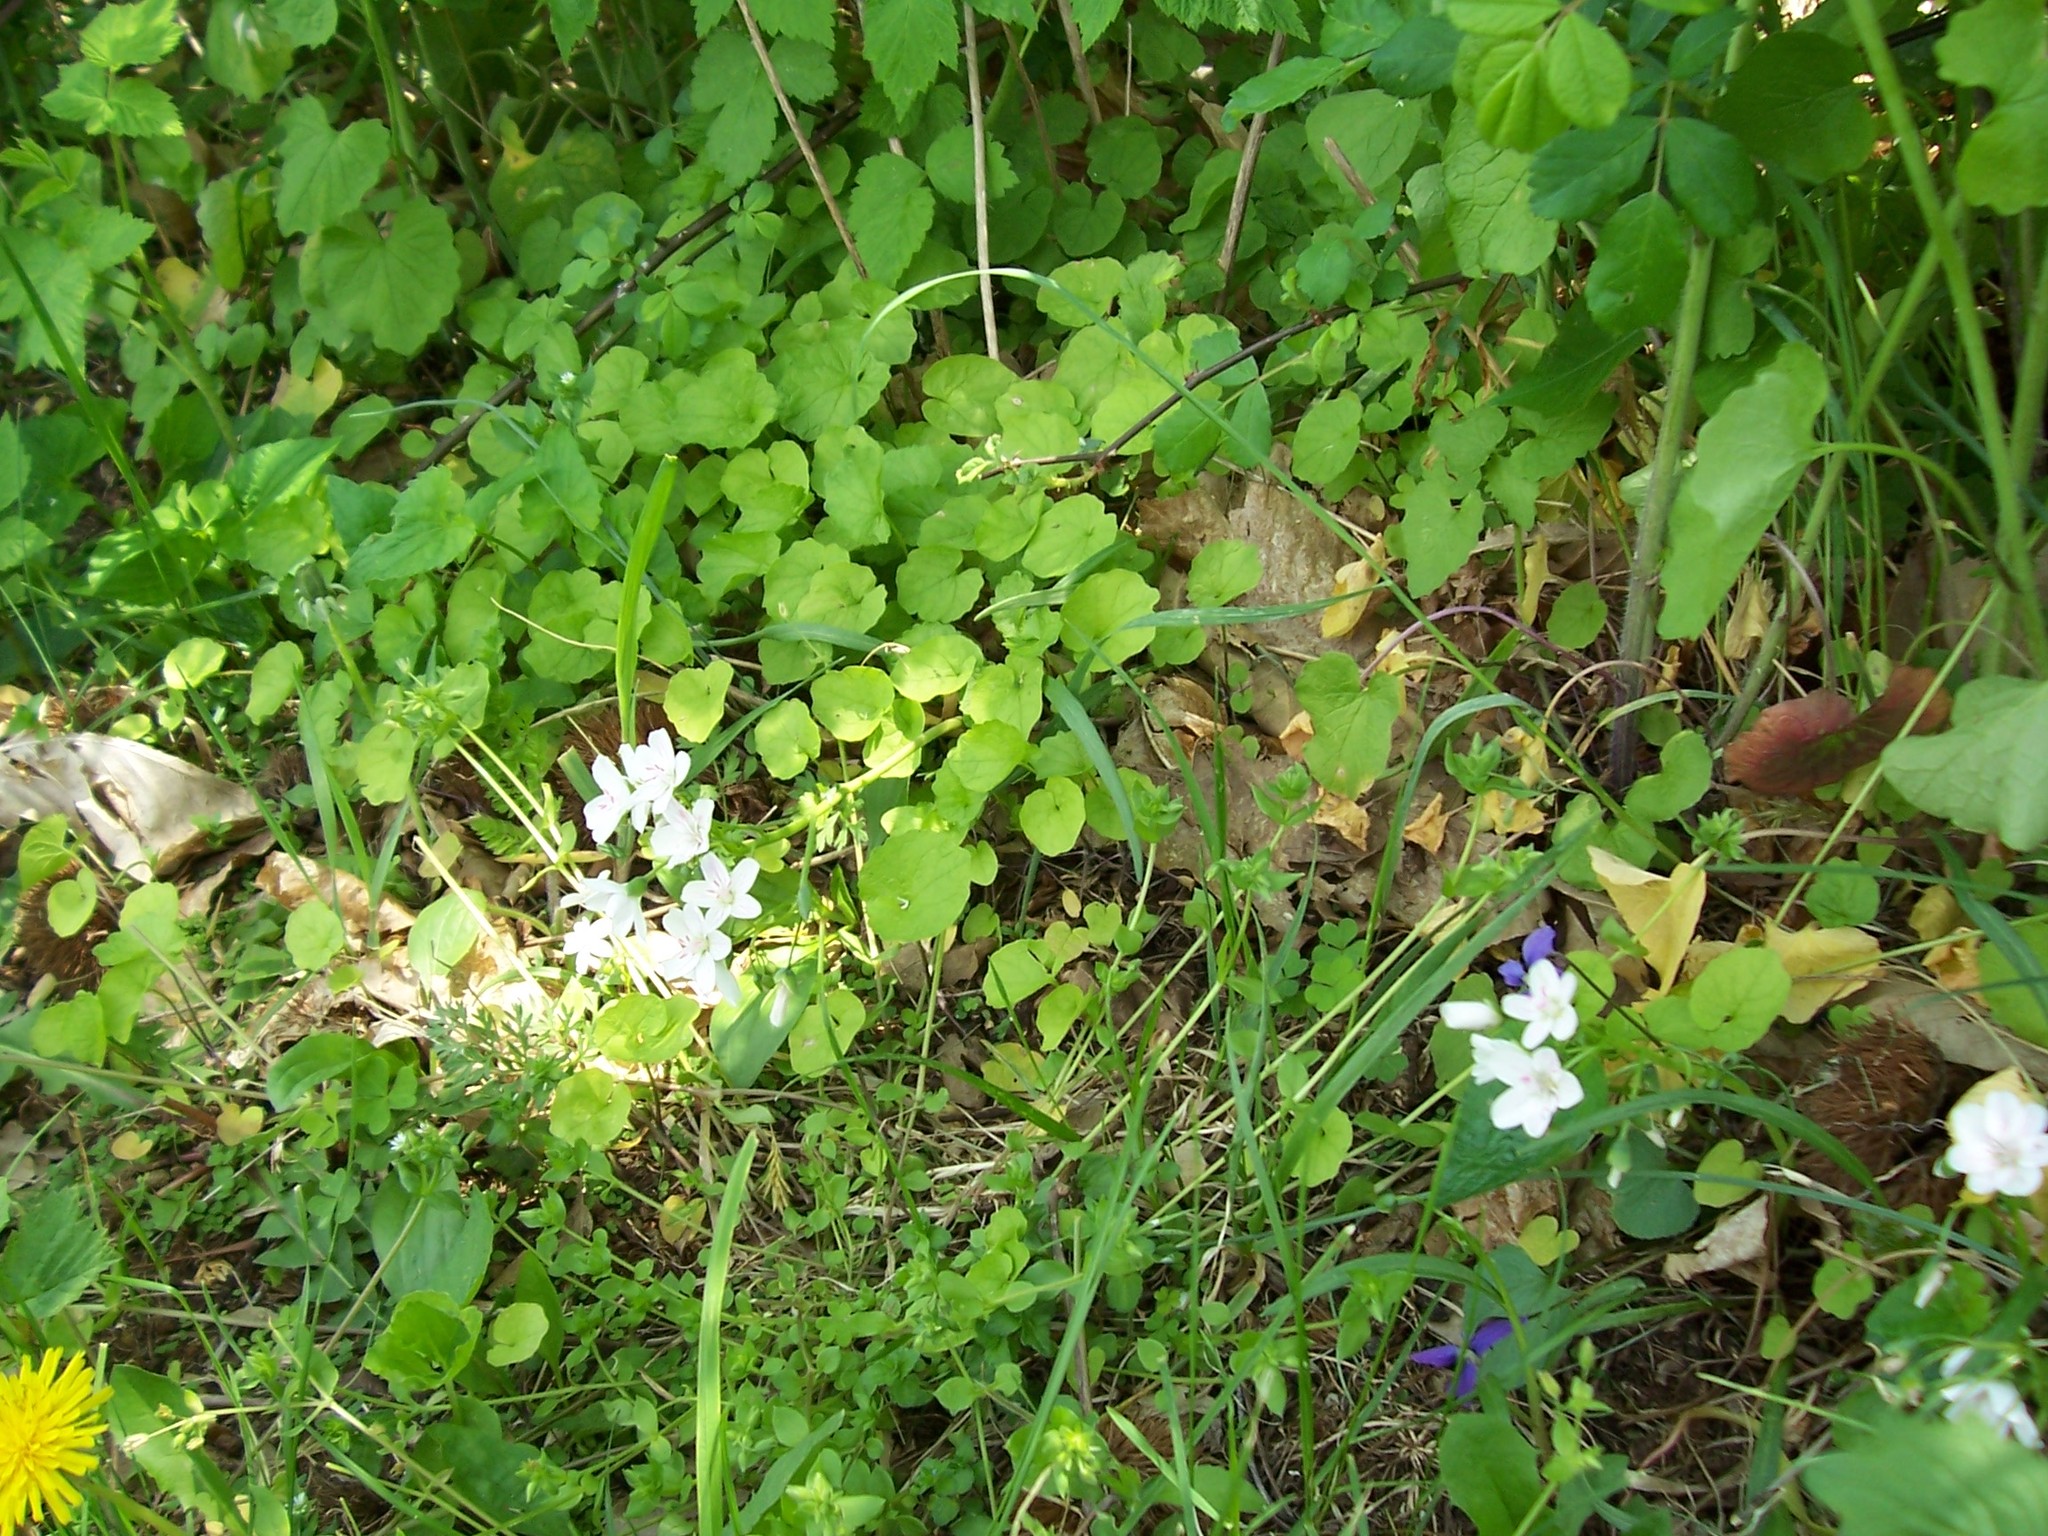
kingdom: Plantae
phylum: Tracheophyta
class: Magnoliopsida
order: Caryophyllales
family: Montiaceae
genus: Claytonia
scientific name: Claytonia virginica
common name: Virginia springbeauty
